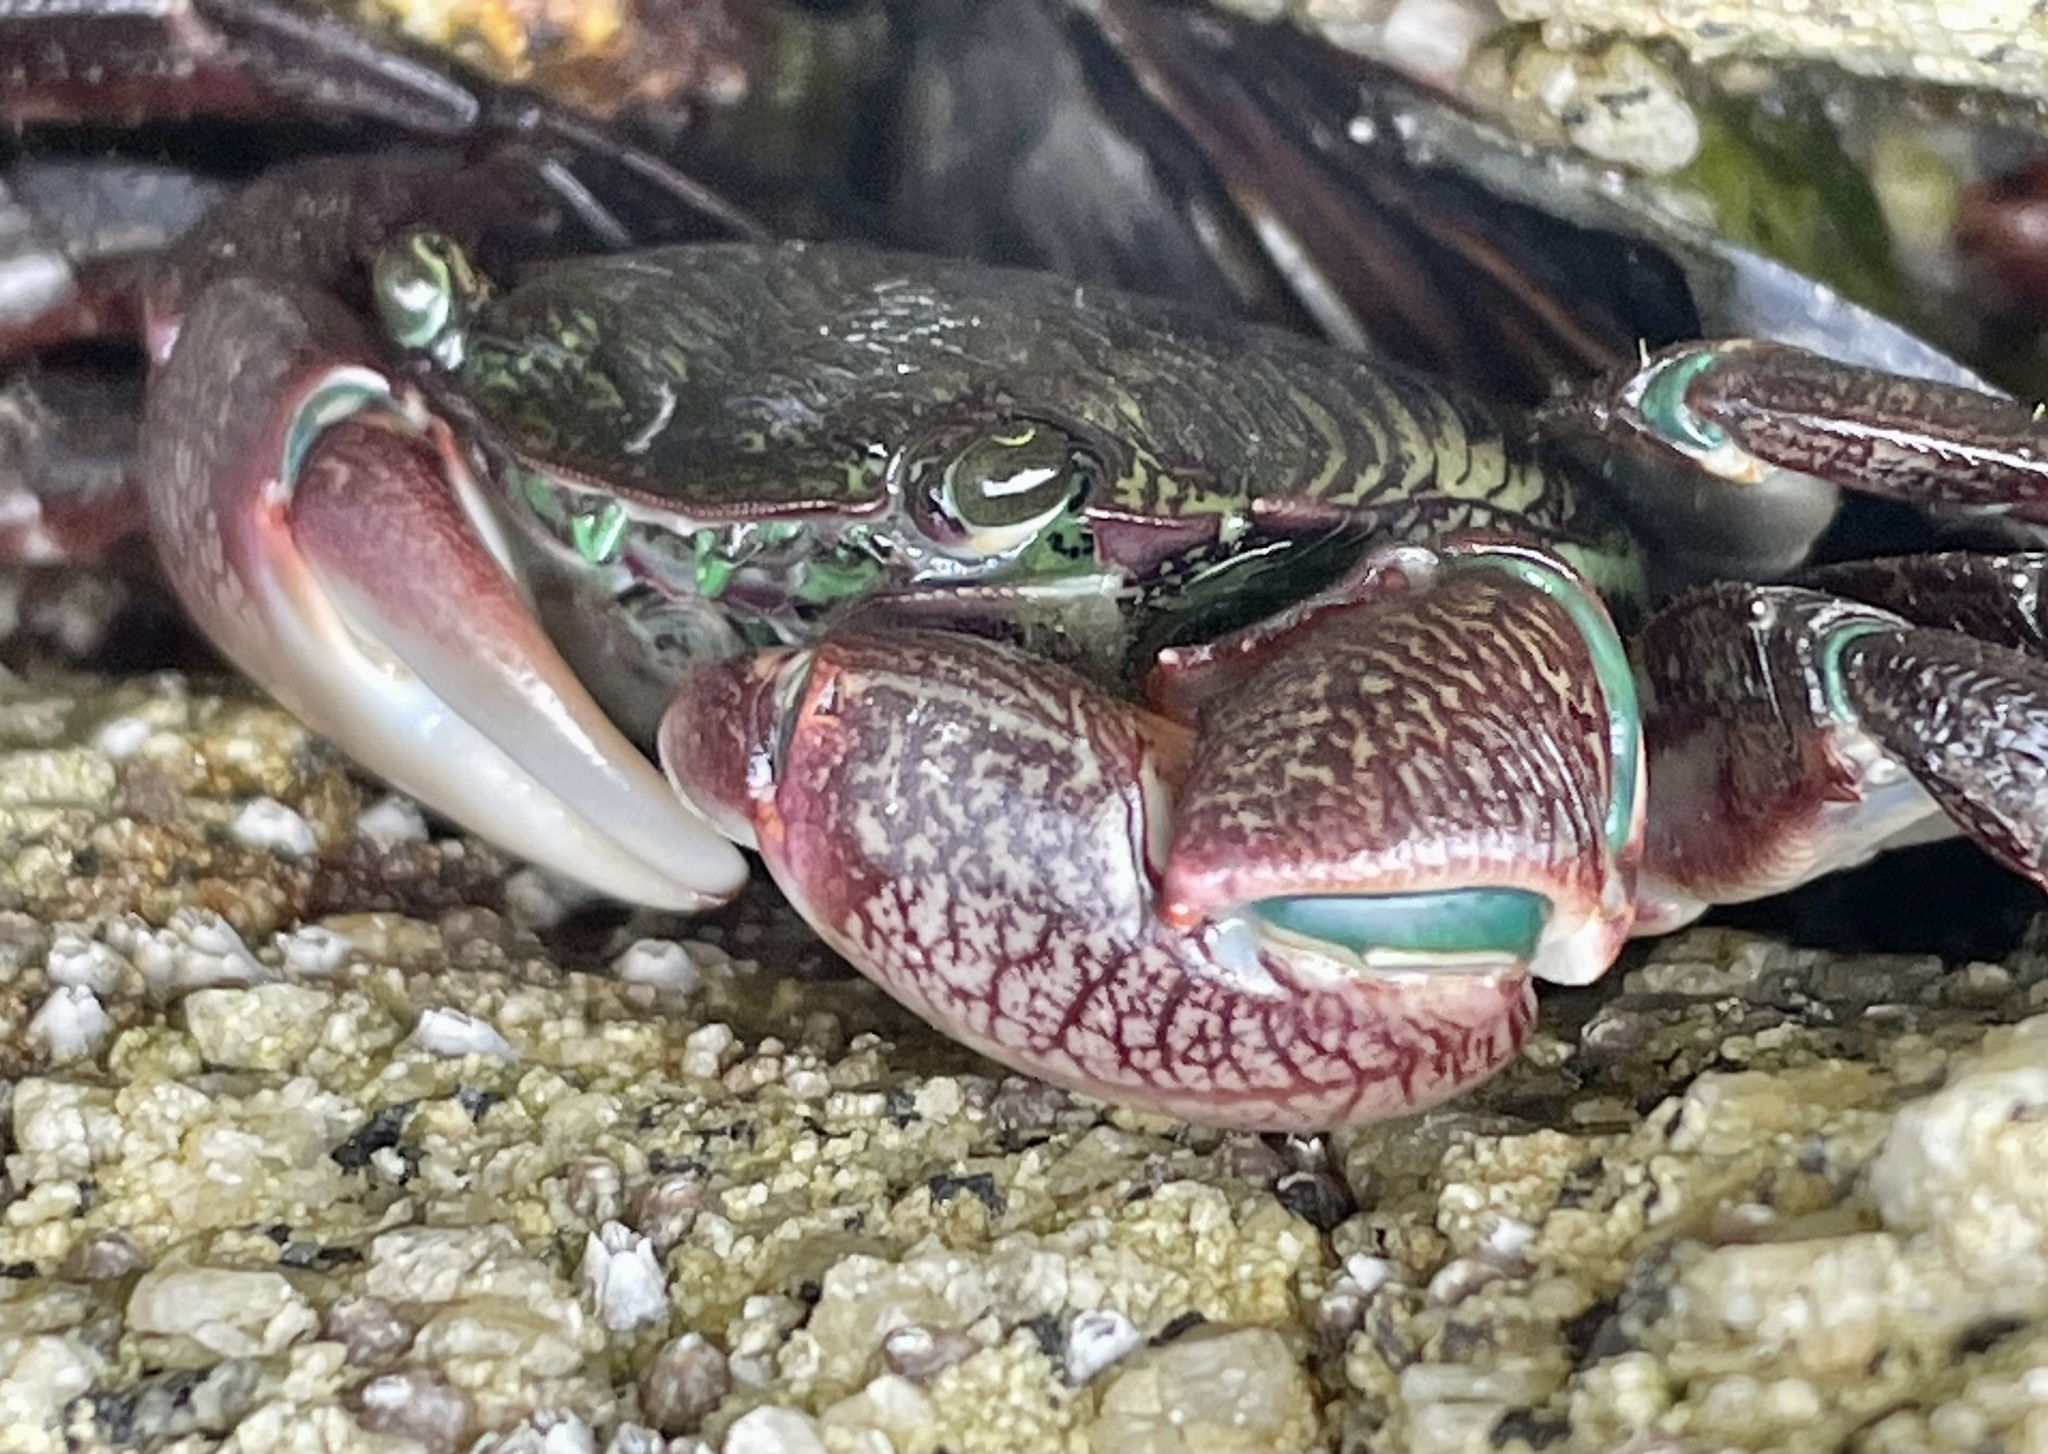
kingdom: Animalia
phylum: Arthropoda
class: Malacostraca
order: Decapoda
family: Grapsidae
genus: Pachygrapsus
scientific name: Pachygrapsus crassipes
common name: Striped shore crab
